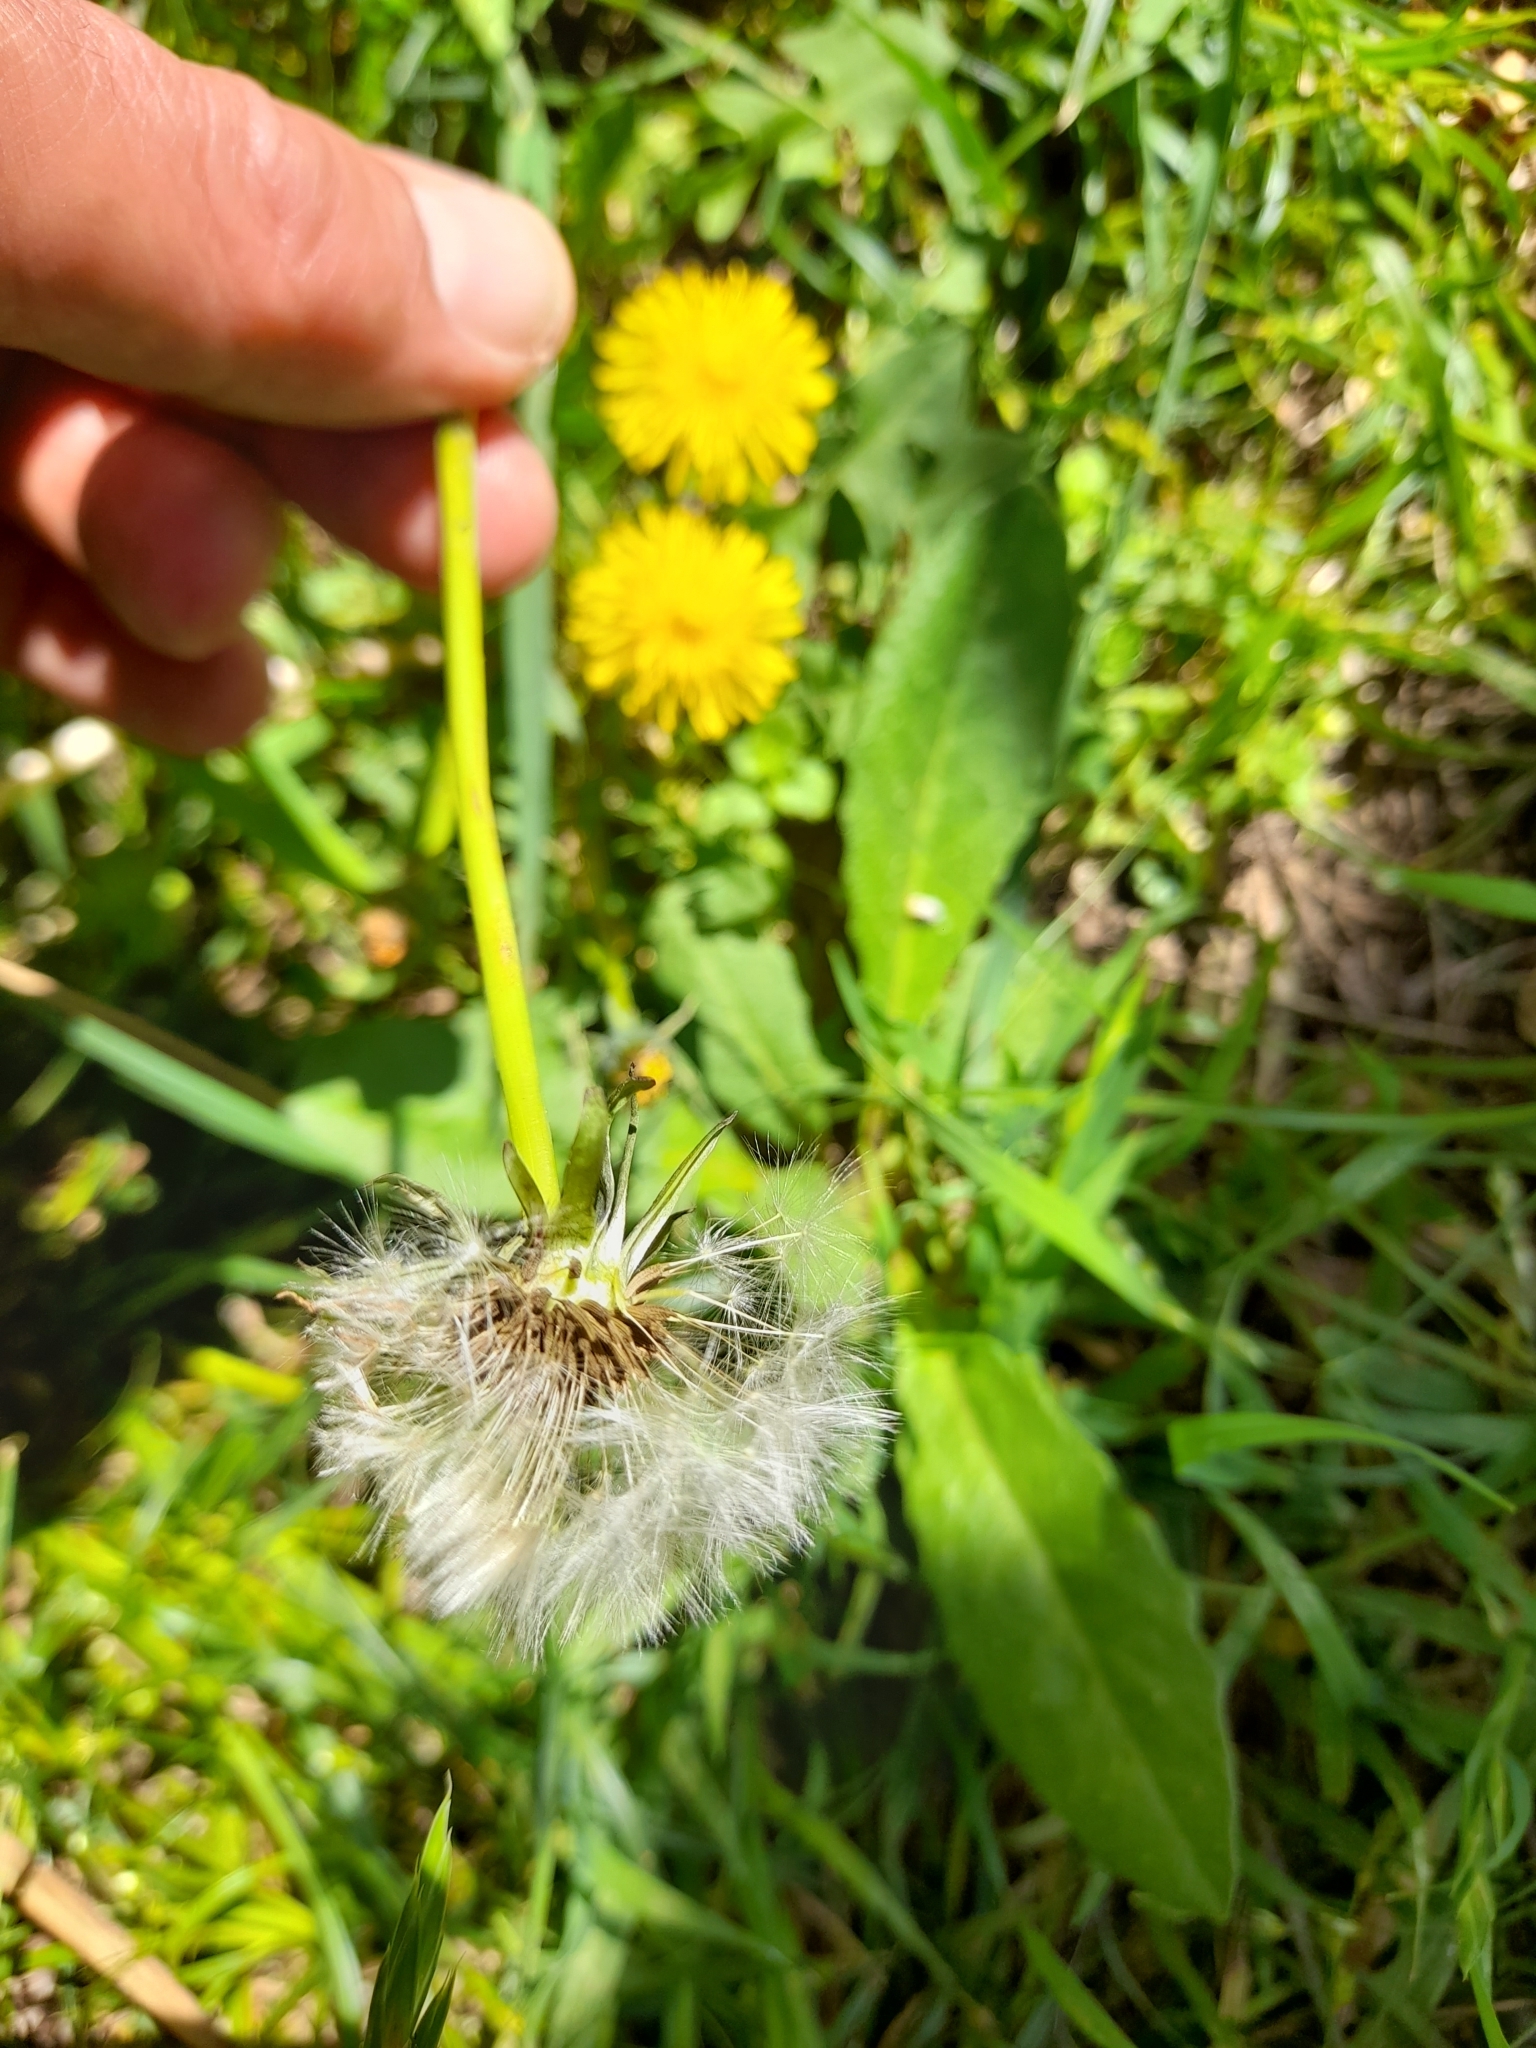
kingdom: Plantae
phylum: Tracheophyta
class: Magnoliopsida
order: Asterales
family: Asteraceae
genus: Taraxacum
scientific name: Taraxacum
